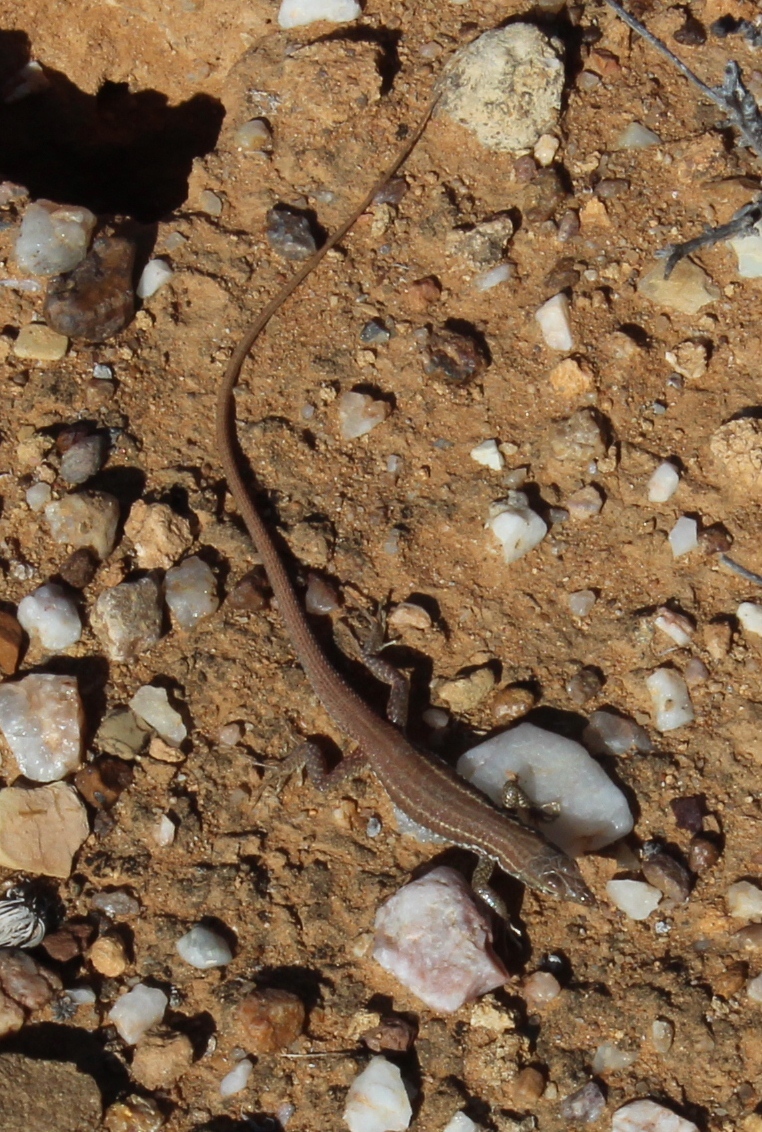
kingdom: Animalia
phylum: Chordata
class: Squamata
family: Lacertidae
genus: Pedioplanis
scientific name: Pedioplanis namaquensis
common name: Namaqua sand lizard
